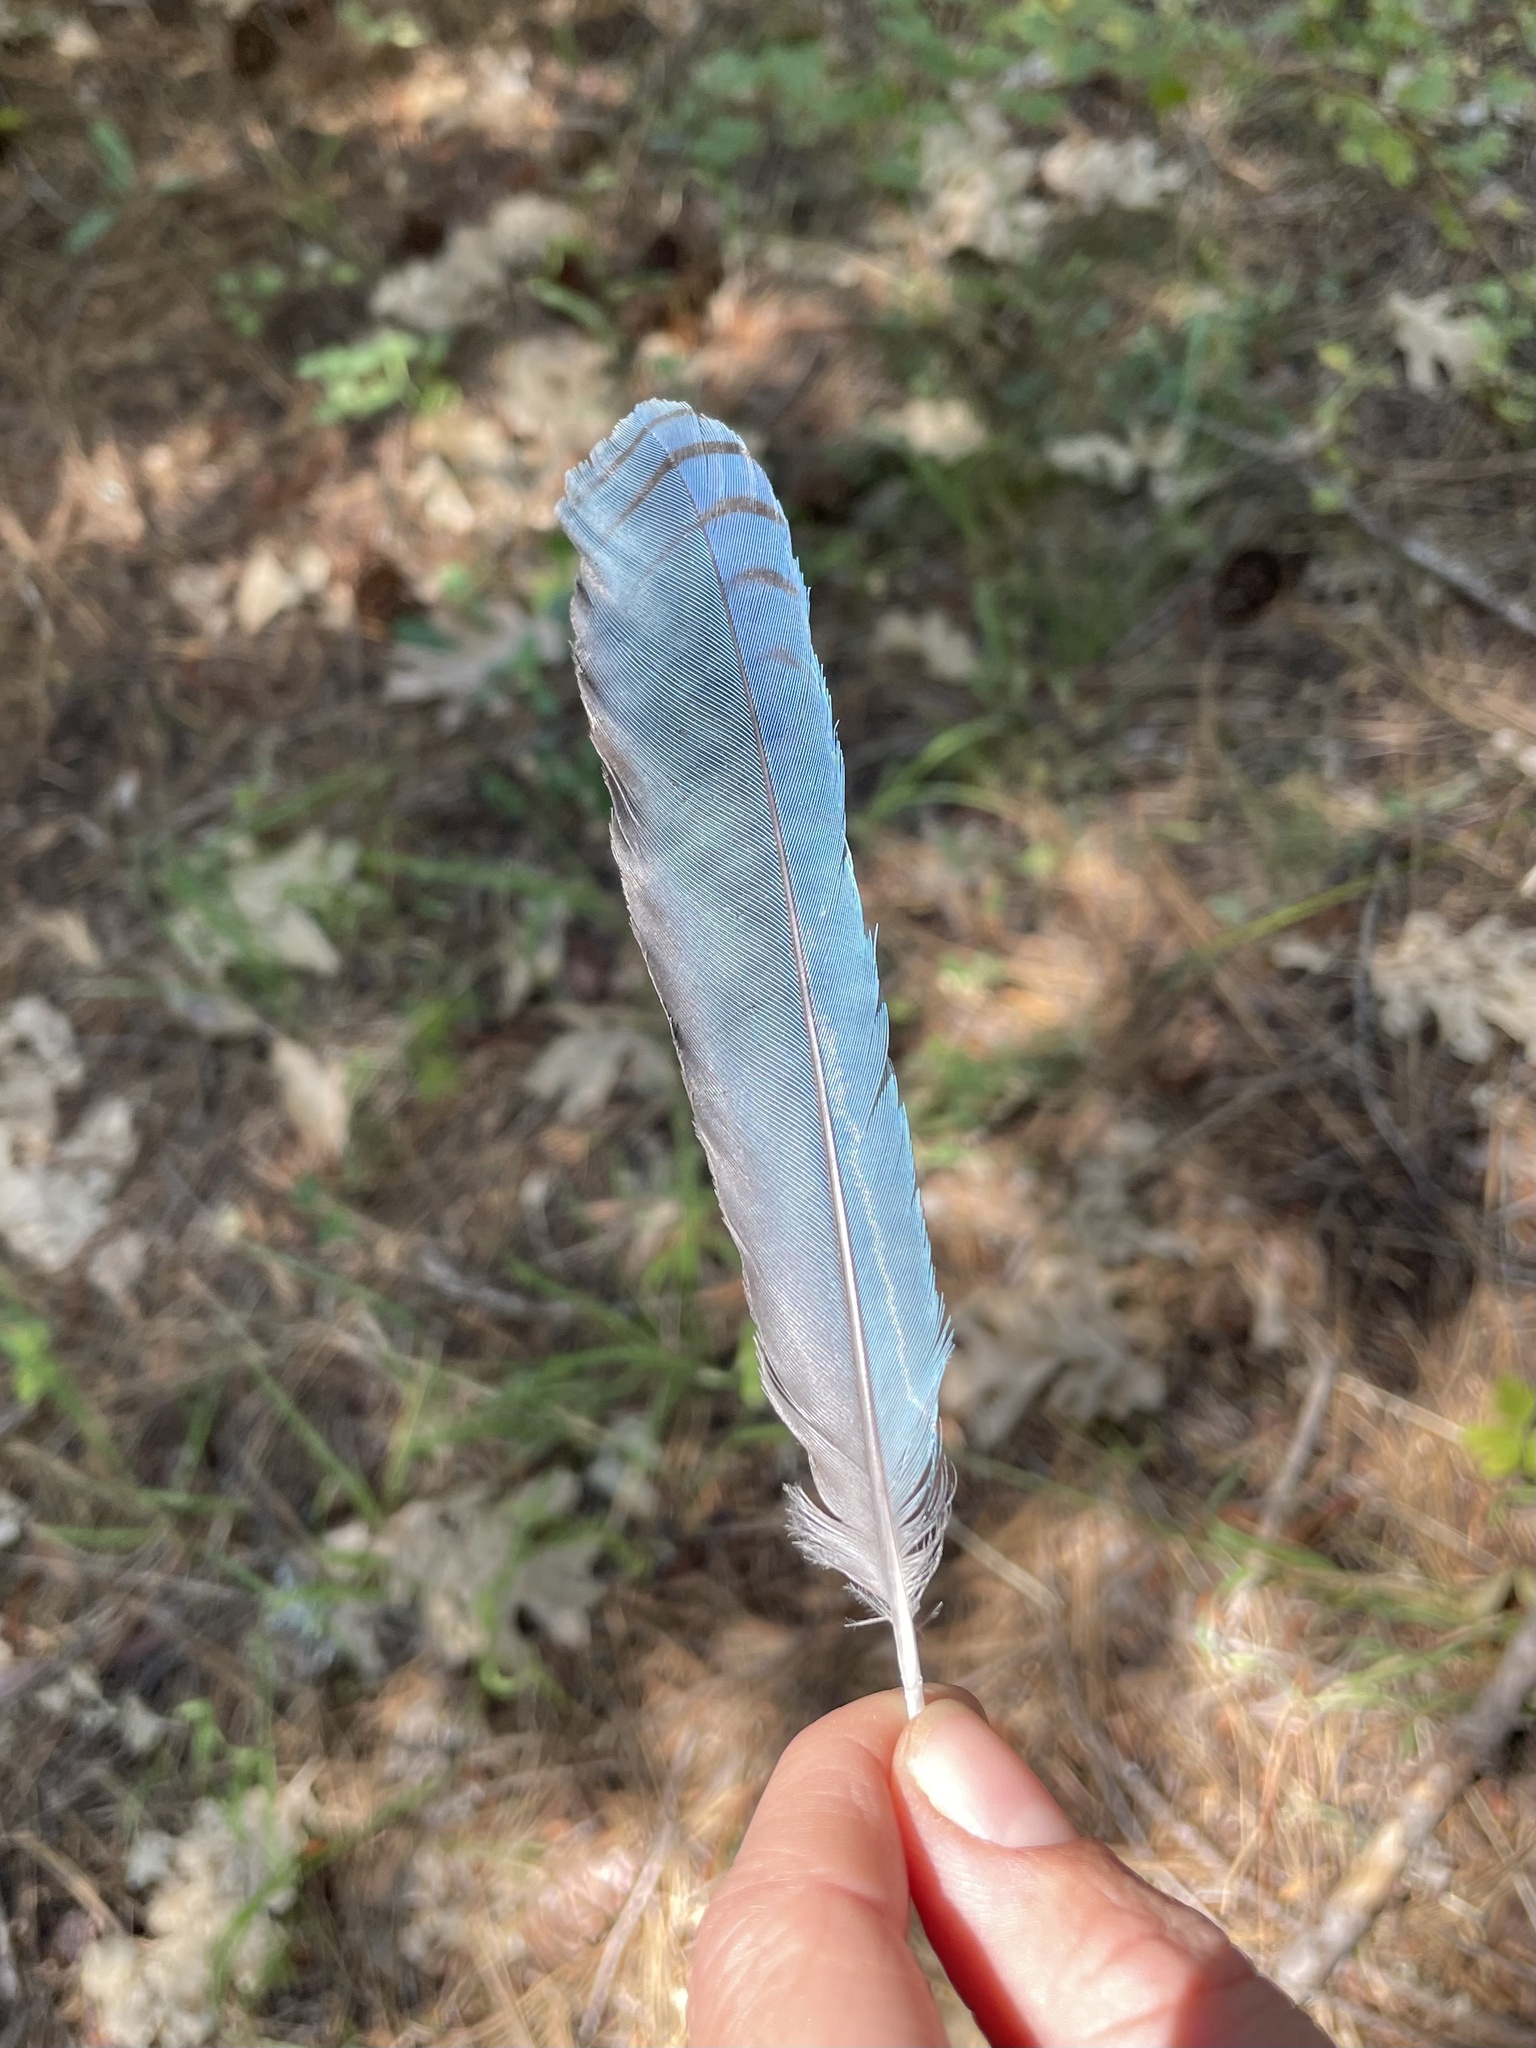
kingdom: Animalia
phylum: Chordata
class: Aves
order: Passeriformes
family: Corvidae
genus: Cyanocitta
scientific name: Cyanocitta stelleri
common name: Steller's jay
